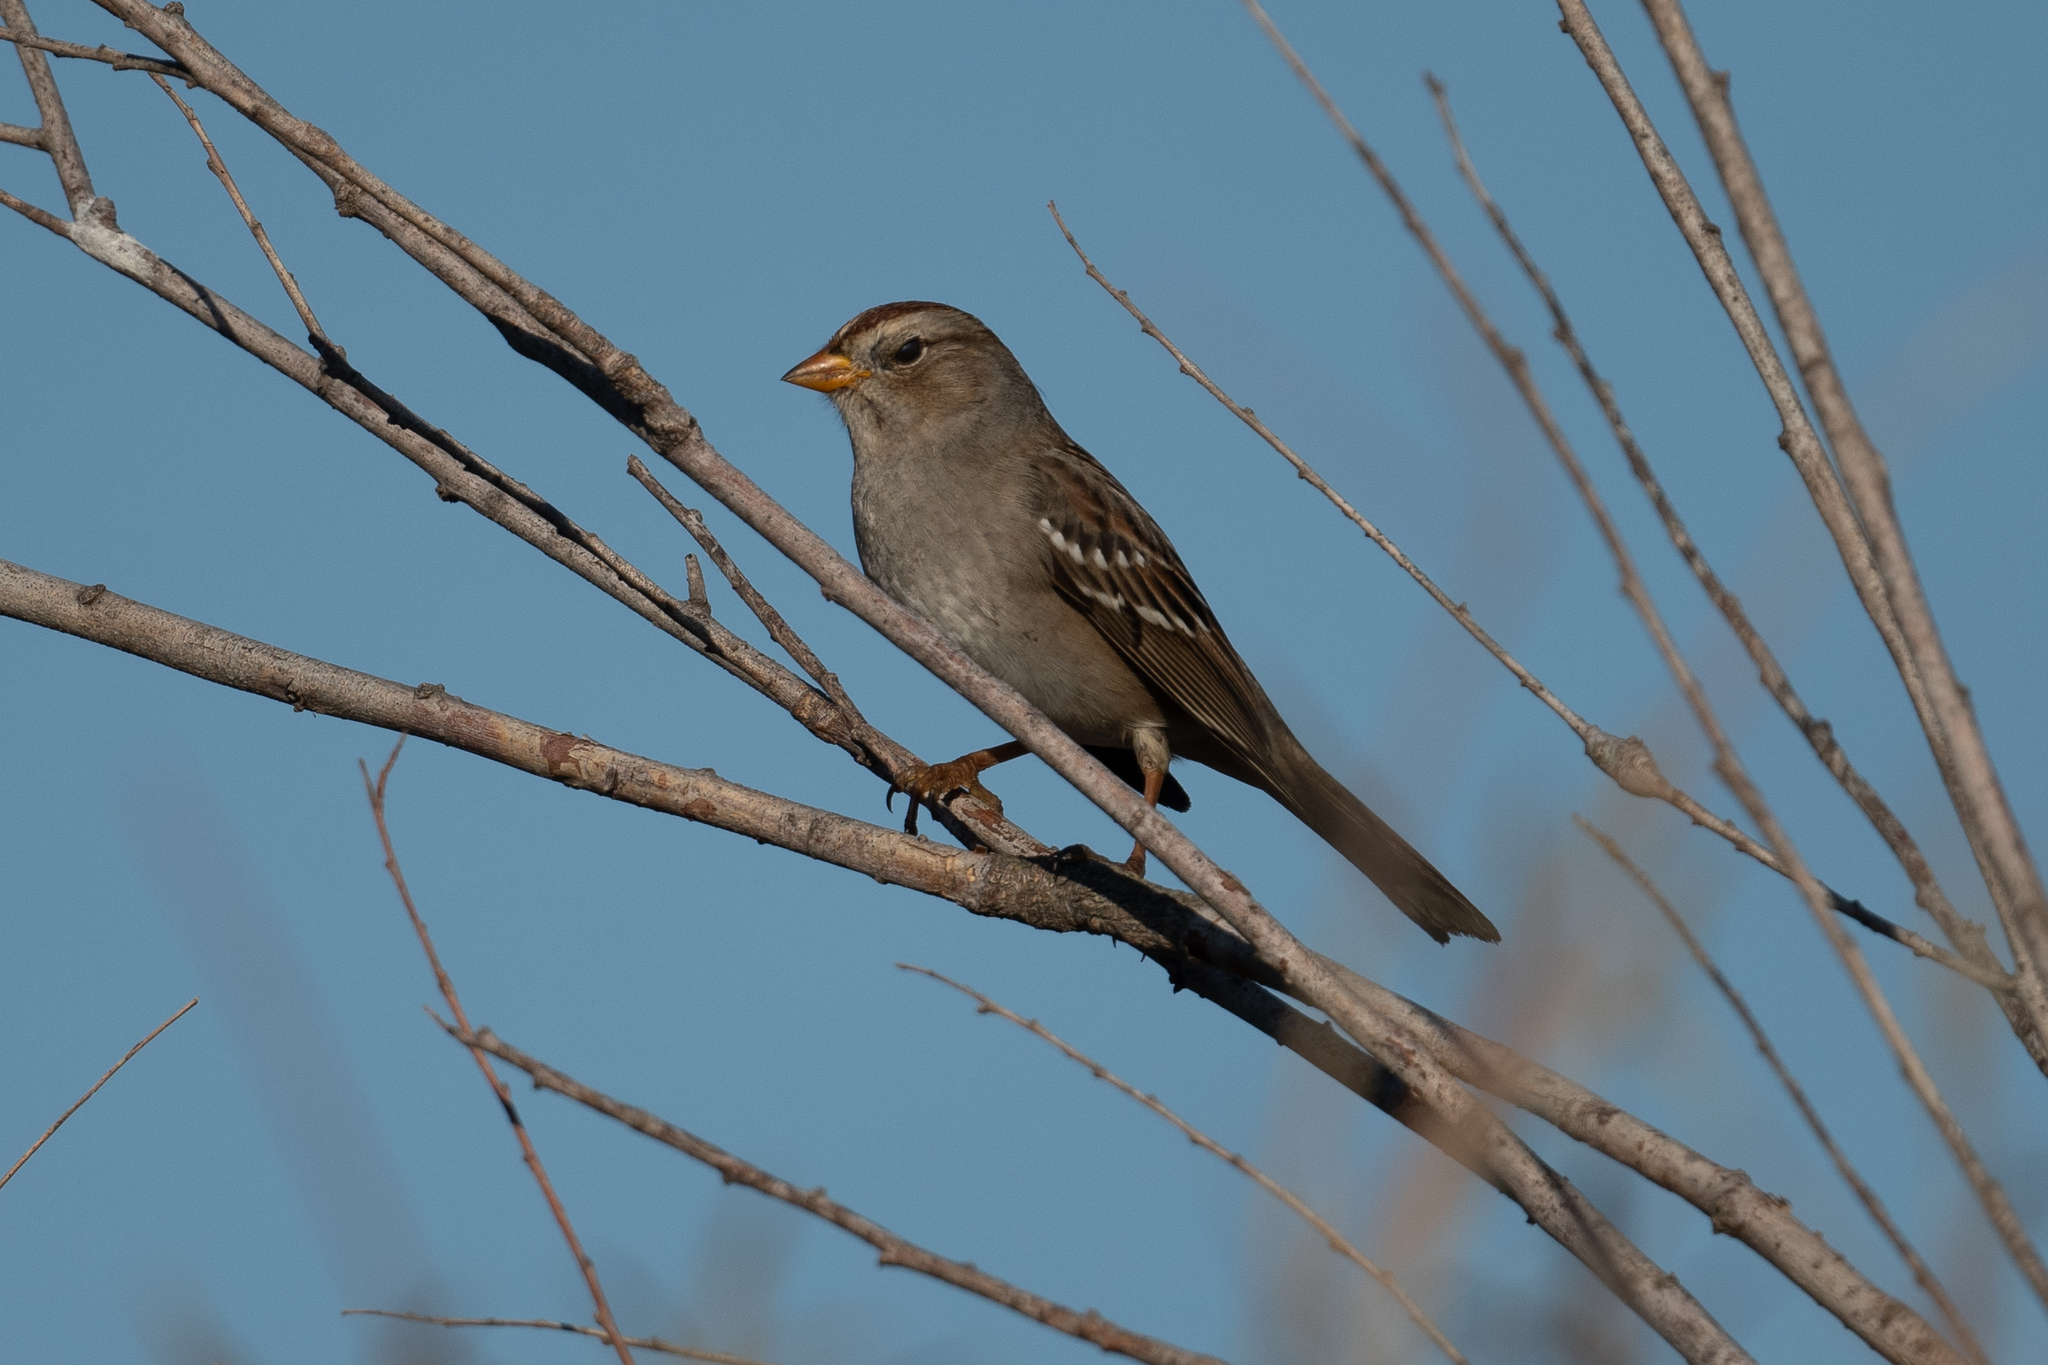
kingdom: Animalia
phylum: Chordata
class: Aves
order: Passeriformes
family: Passerellidae
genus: Zonotrichia
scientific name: Zonotrichia leucophrys
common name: White-crowned sparrow
